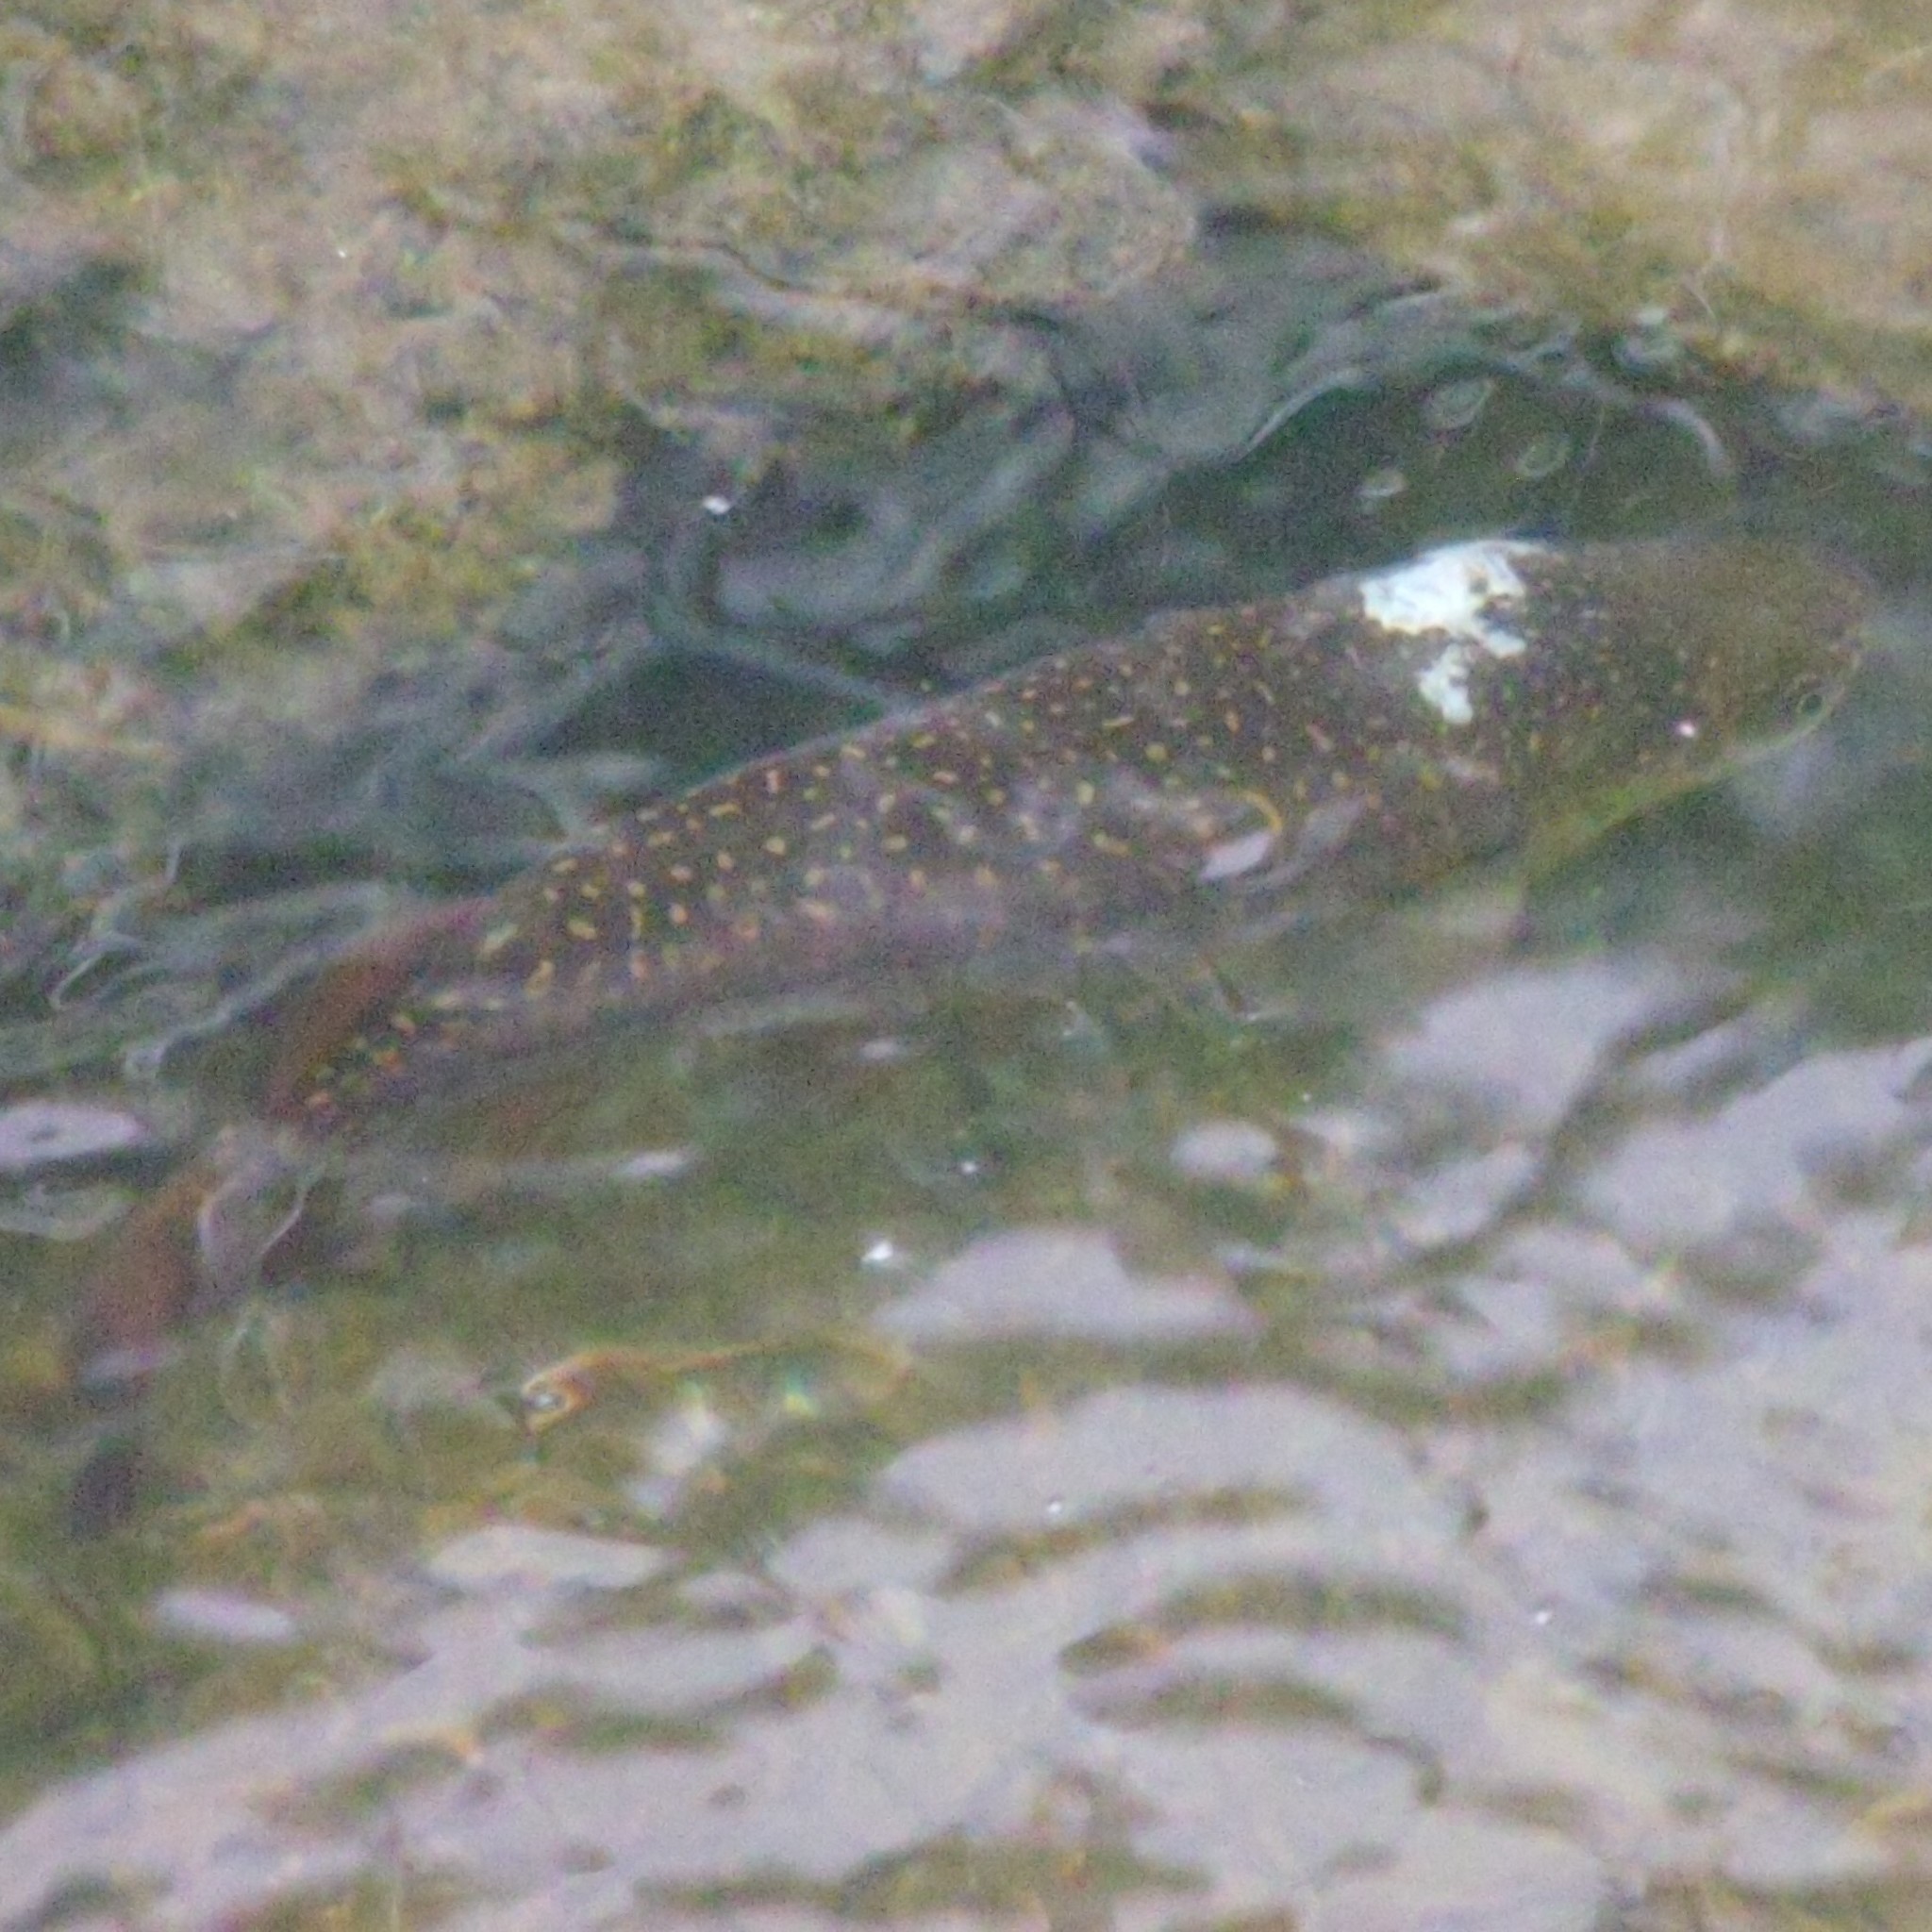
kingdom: Animalia
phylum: Chordata
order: Osmeriformes
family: Galaxiidae
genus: Galaxias
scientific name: Galaxias argenteus
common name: Giant kokopu
